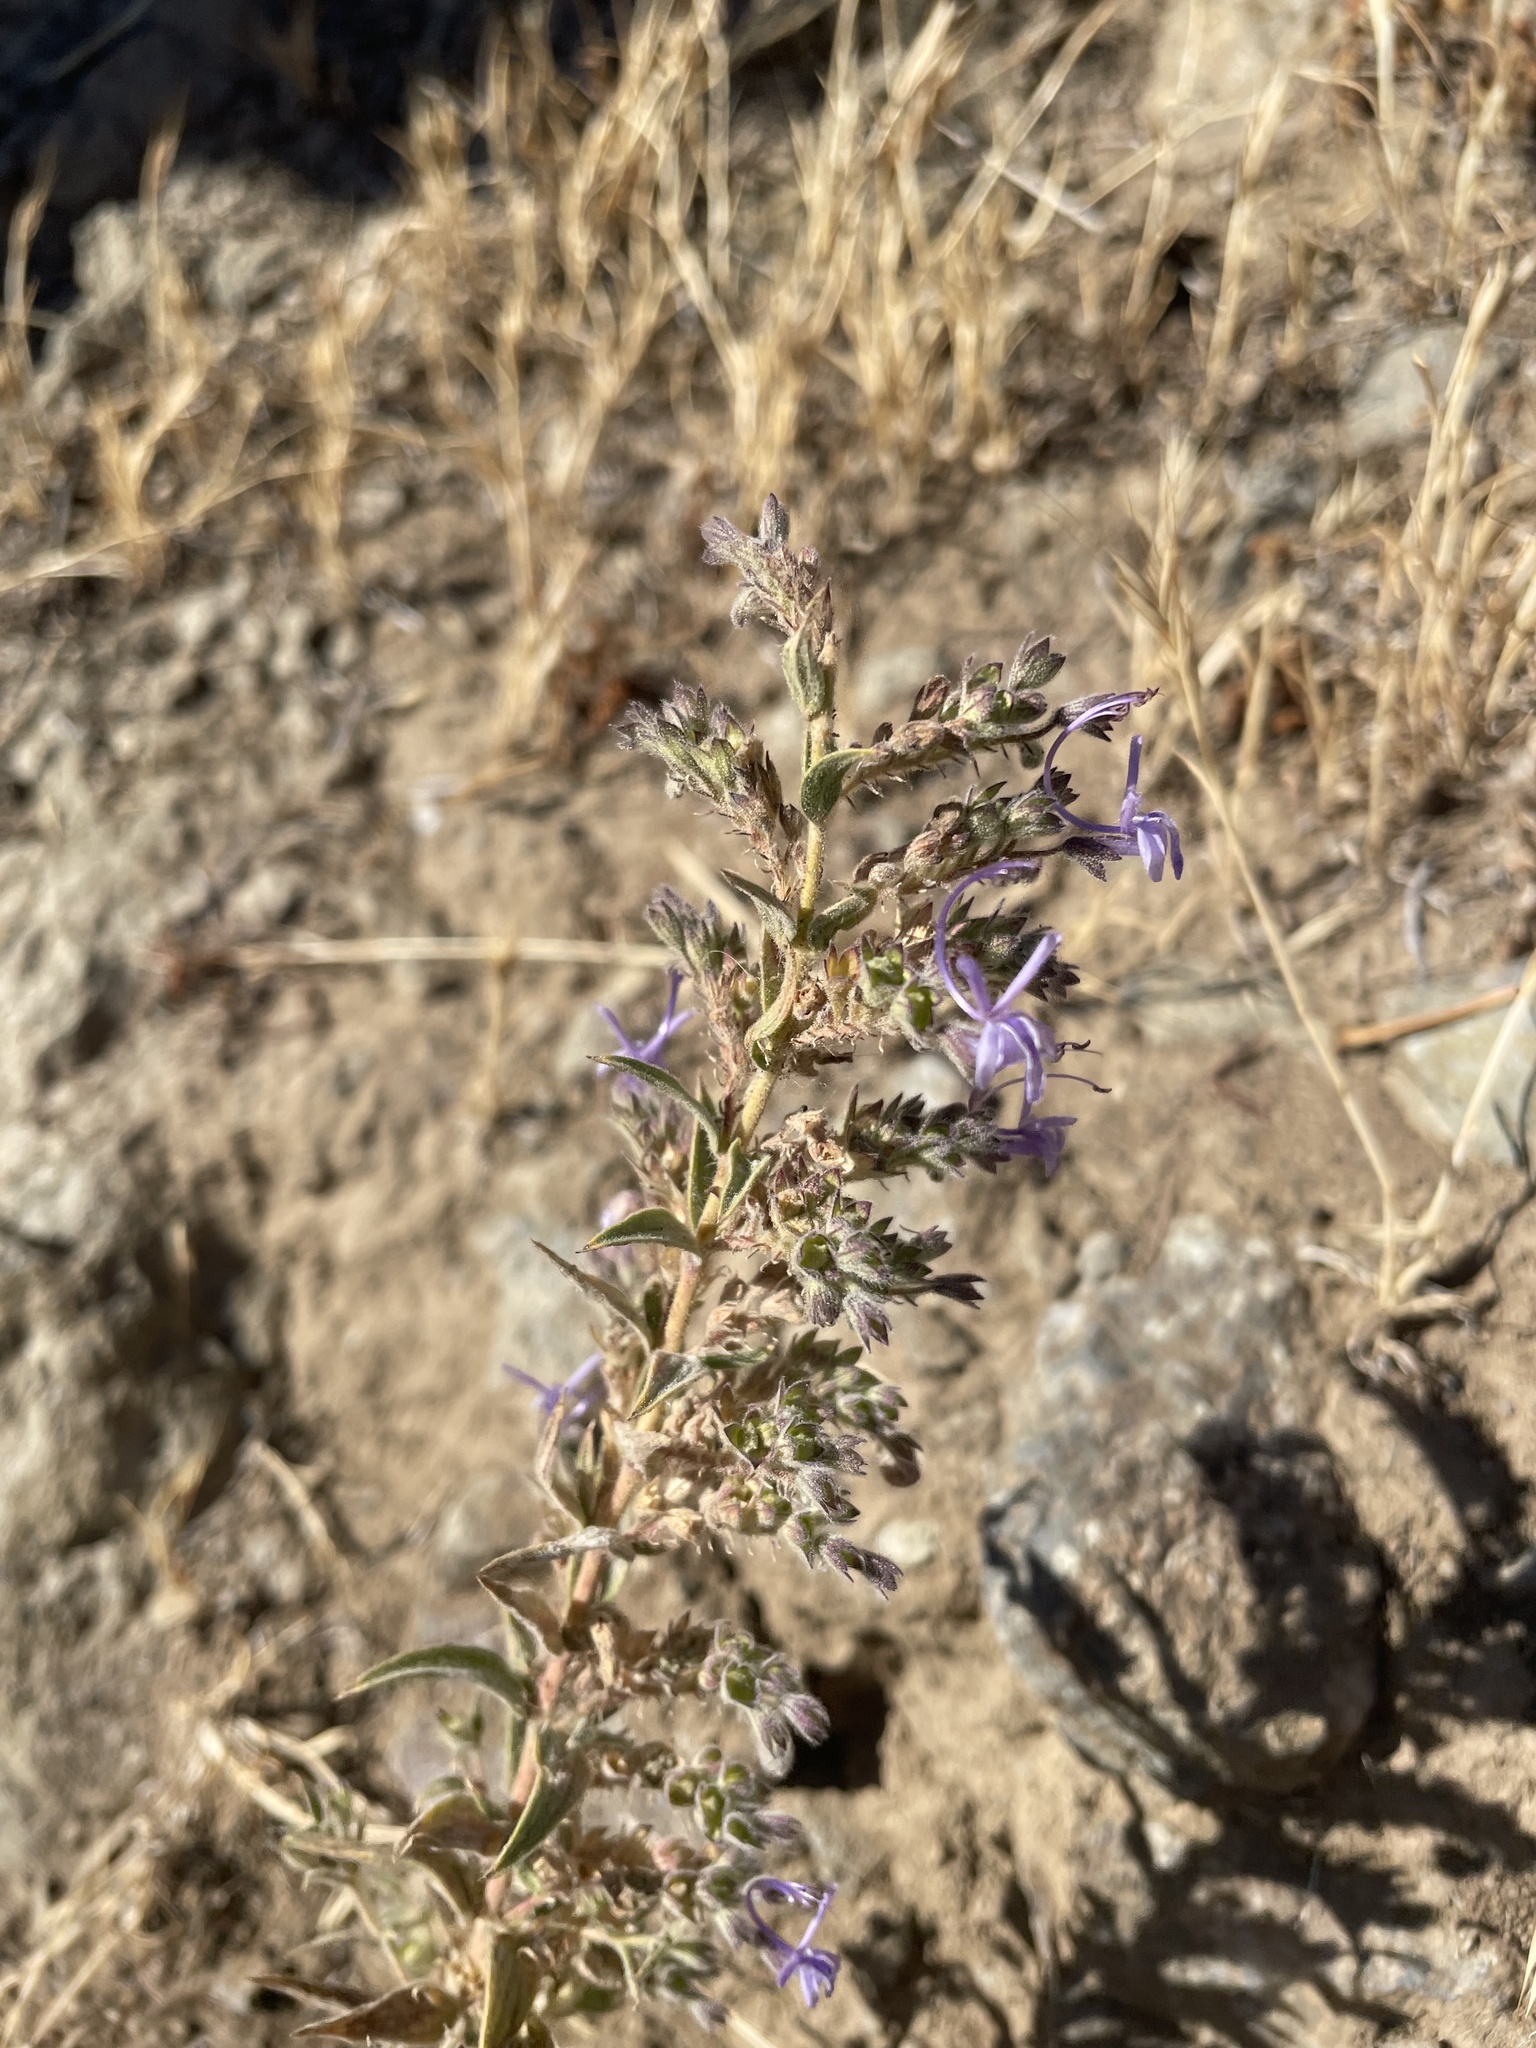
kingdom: Plantae
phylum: Tracheophyta
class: Magnoliopsida
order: Lamiales
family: Lamiaceae
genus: Trichostema
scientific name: Trichostema lanceolatum
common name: Vinegar-weed
